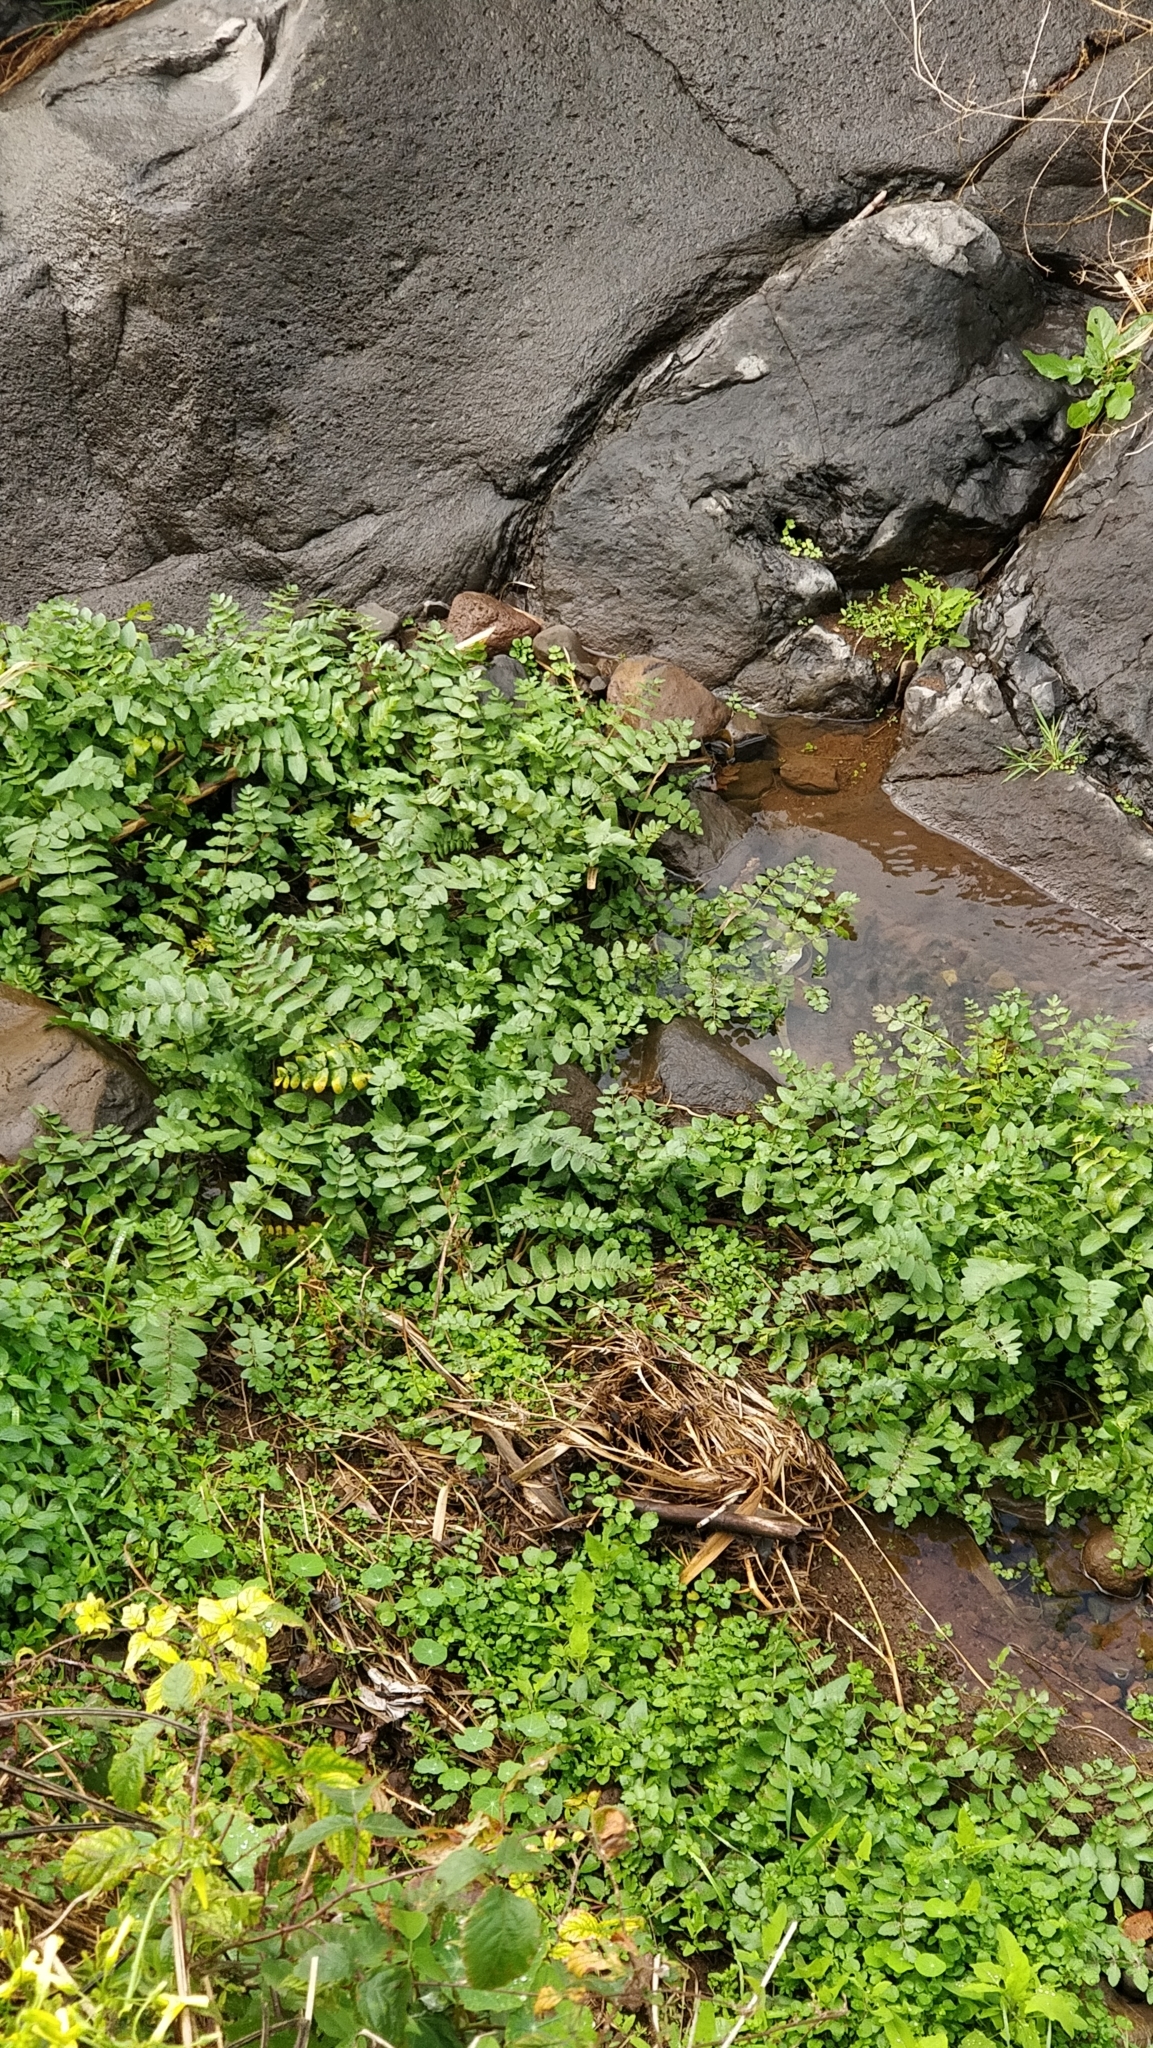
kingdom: Plantae
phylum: Tracheophyta
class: Magnoliopsida
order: Apiales
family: Apiaceae
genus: Helosciadium
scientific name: Helosciadium nodiflorum
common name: Fool's-watercress
